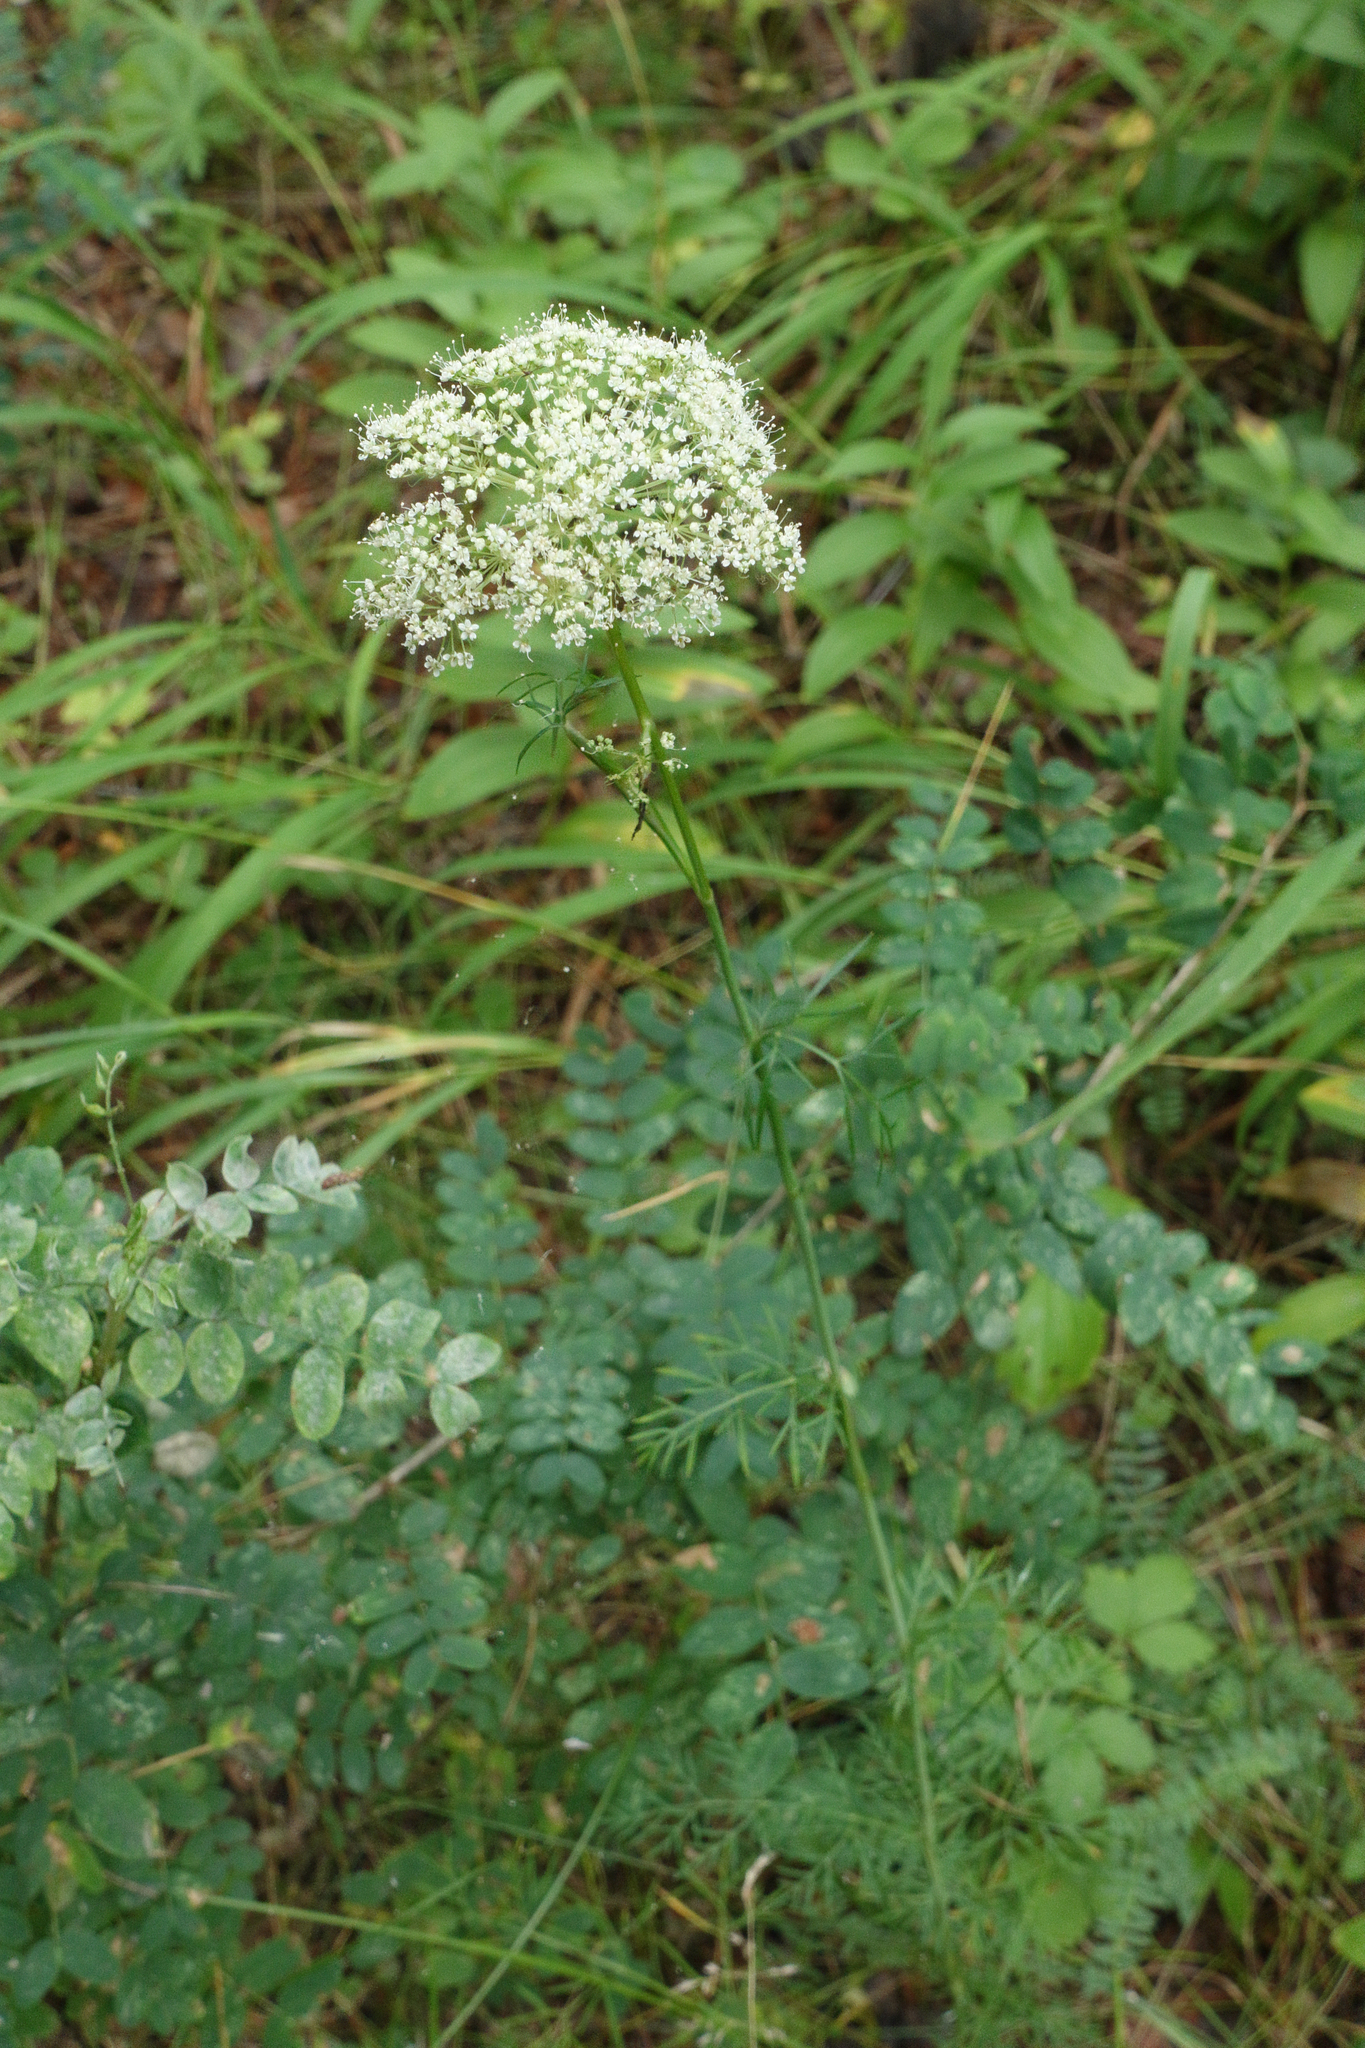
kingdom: Plantae
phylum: Tracheophyta
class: Magnoliopsida
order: Apiales
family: Apiaceae
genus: Kadenia
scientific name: Kadenia dubia
